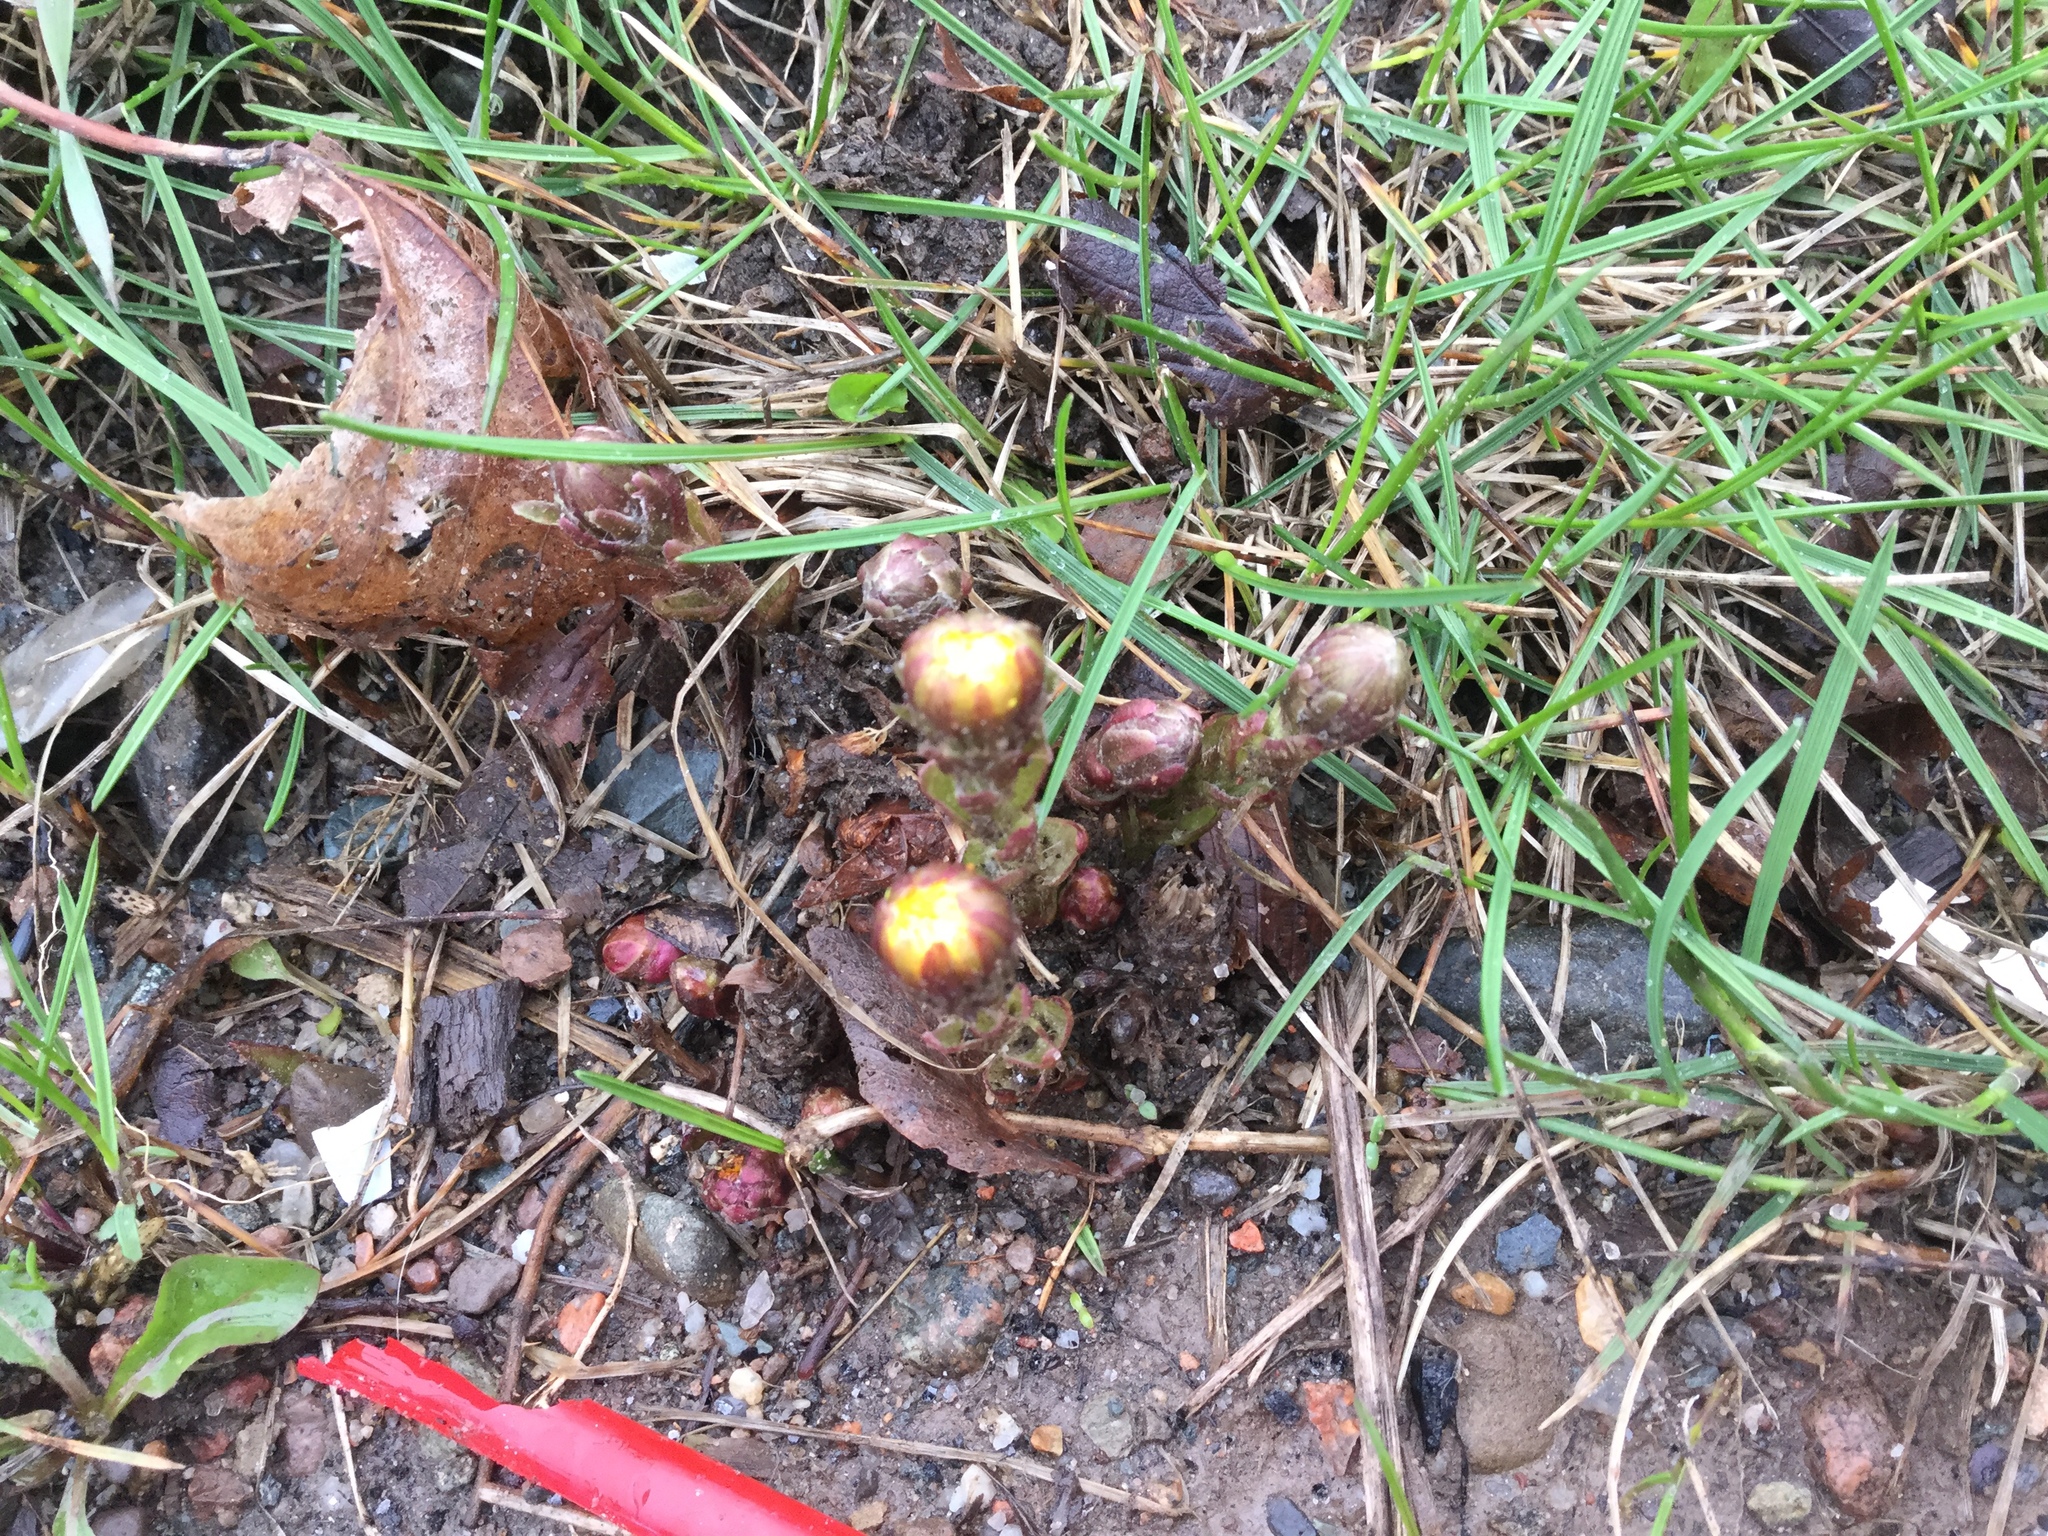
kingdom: Plantae
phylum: Tracheophyta
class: Magnoliopsida
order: Asterales
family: Asteraceae
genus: Tussilago
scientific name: Tussilago farfara
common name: Coltsfoot
